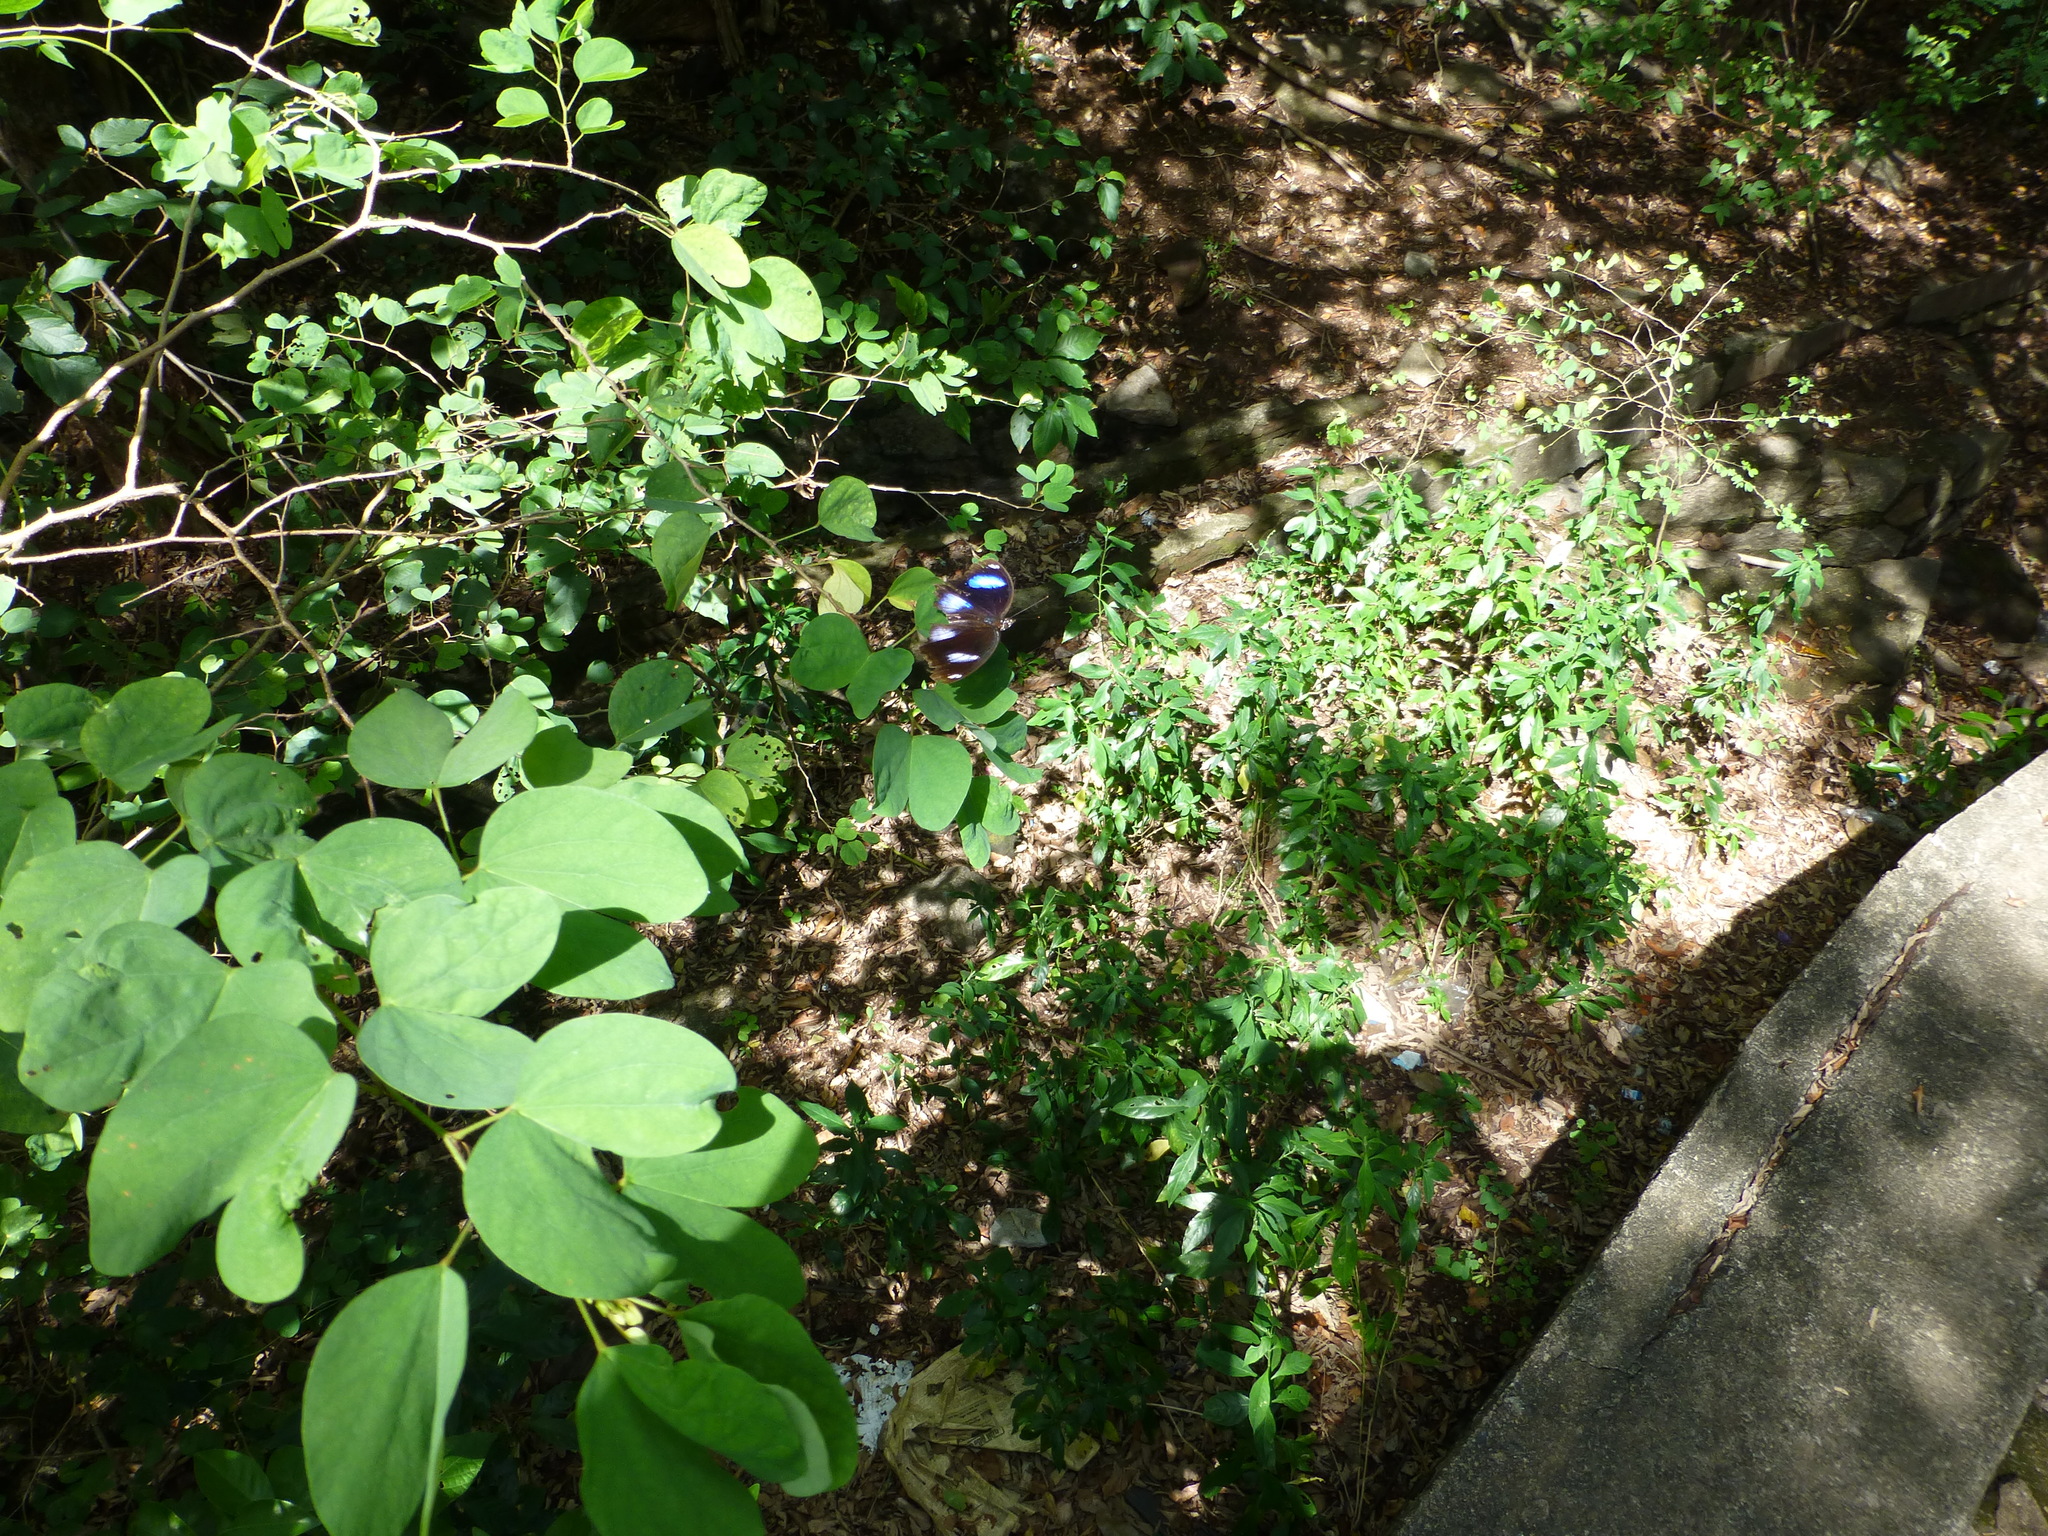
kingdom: Animalia
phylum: Arthropoda
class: Insecta
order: Lepidoptera
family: Nymphalidae
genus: Hypolimnas
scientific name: Hypolimnas bolina
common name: Great eggfly
